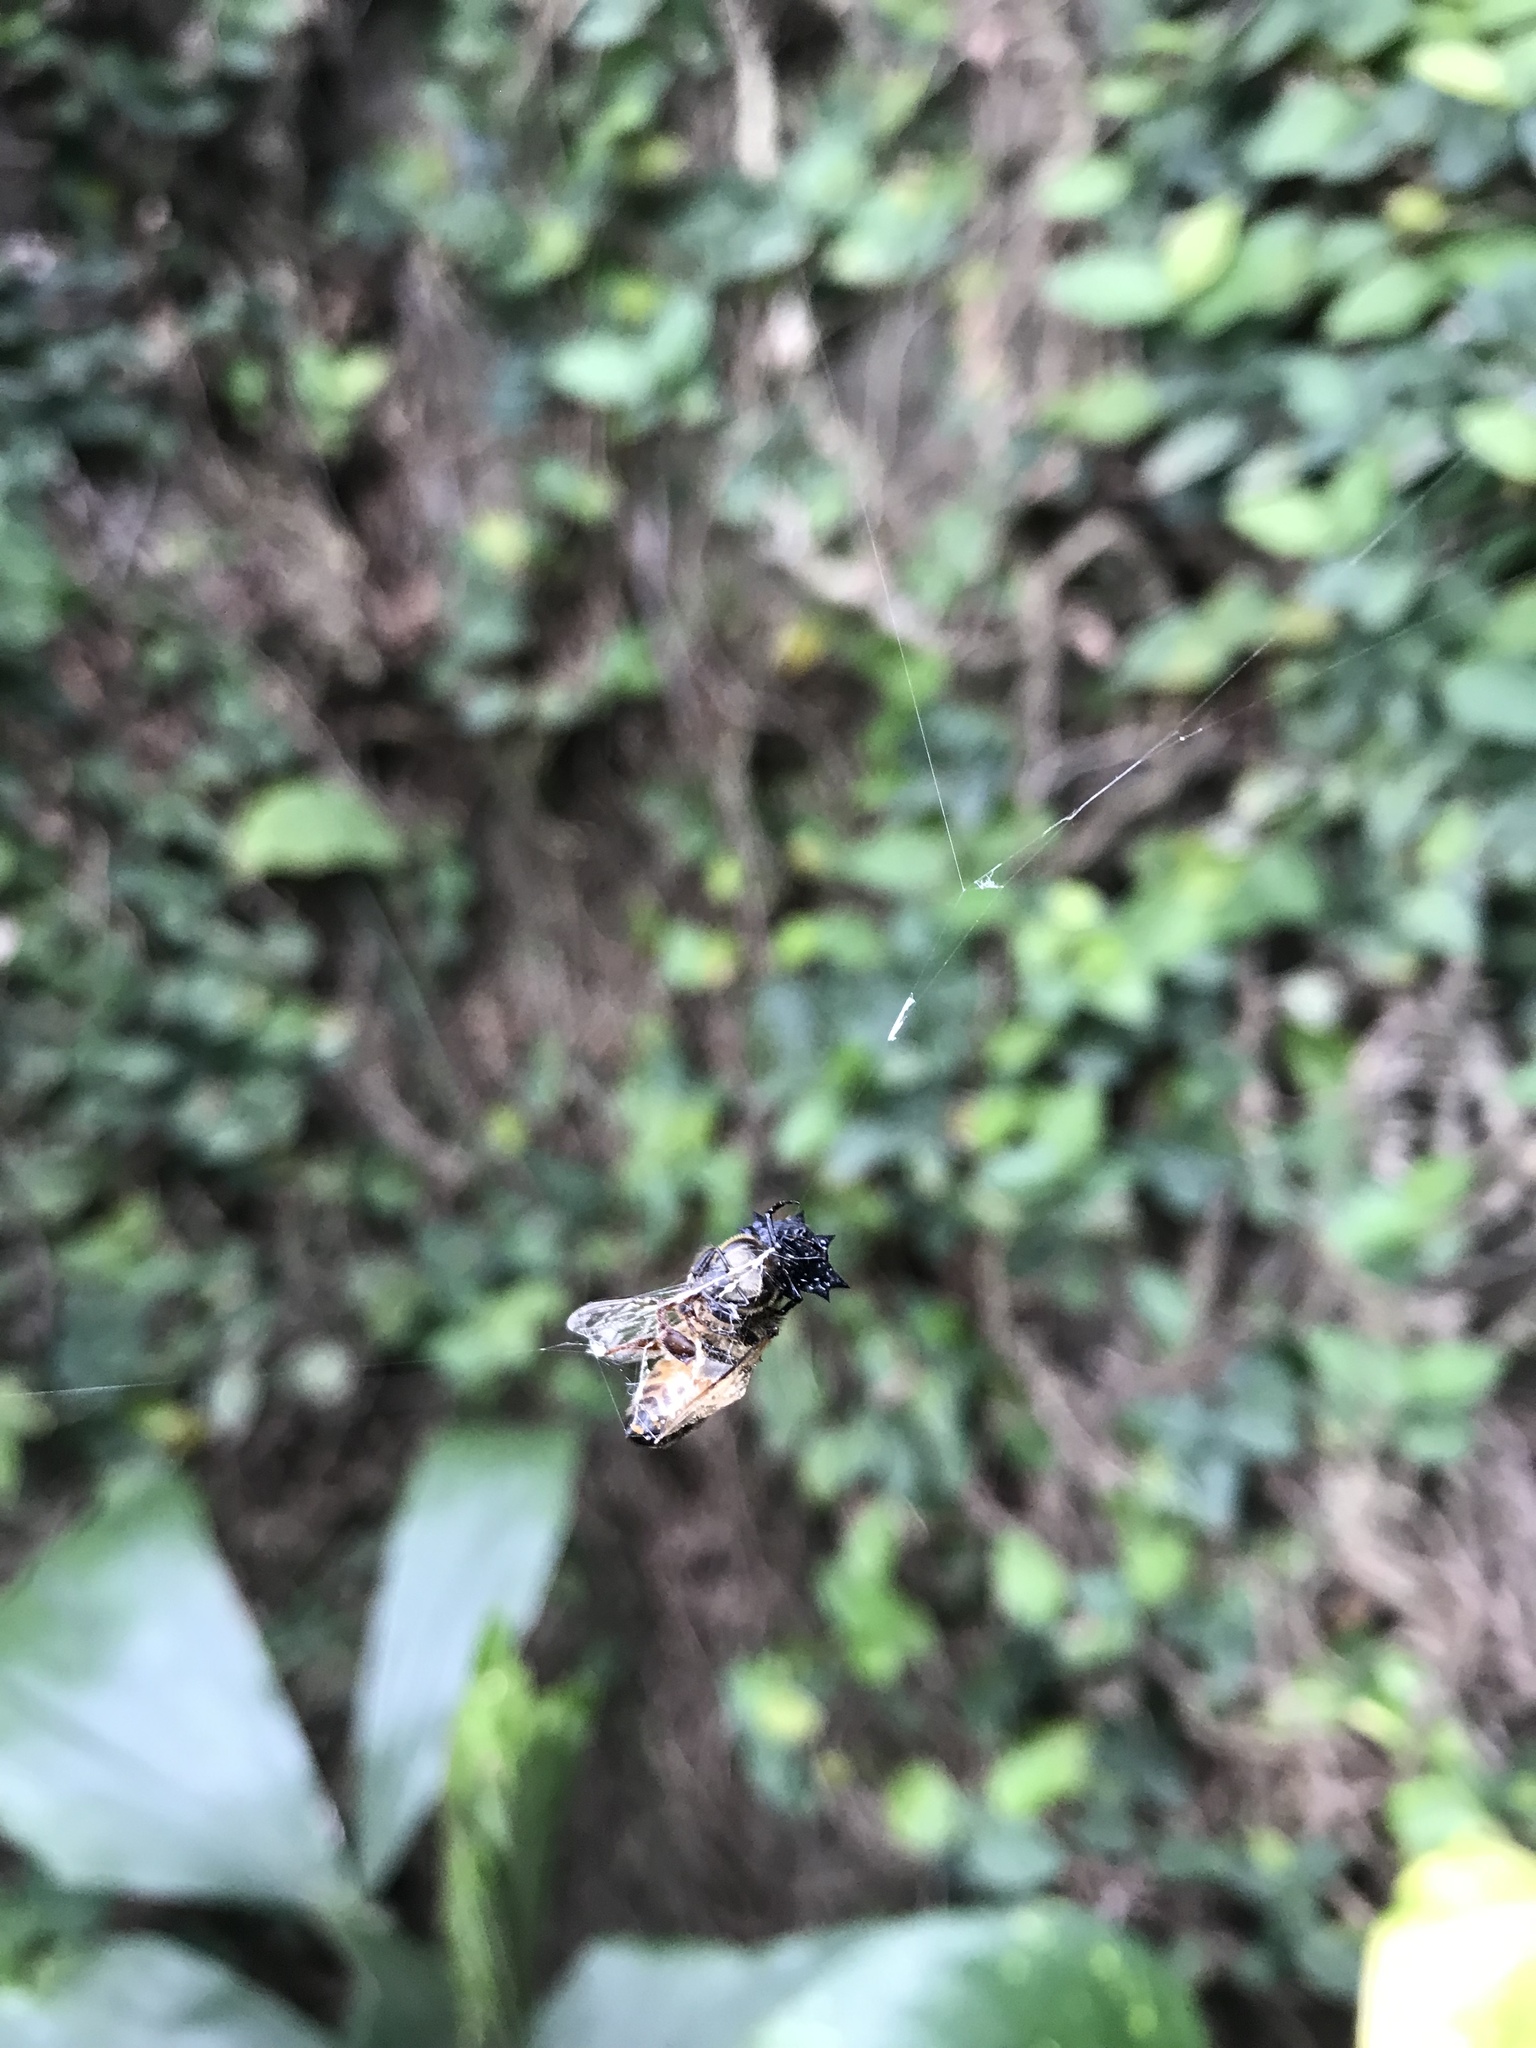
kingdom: Animalia
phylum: Arthropoda
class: Arachnida
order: Araneae
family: Araneidae
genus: Gasteracantha
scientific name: Gasteracantha cancriformis
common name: Orb weavers
